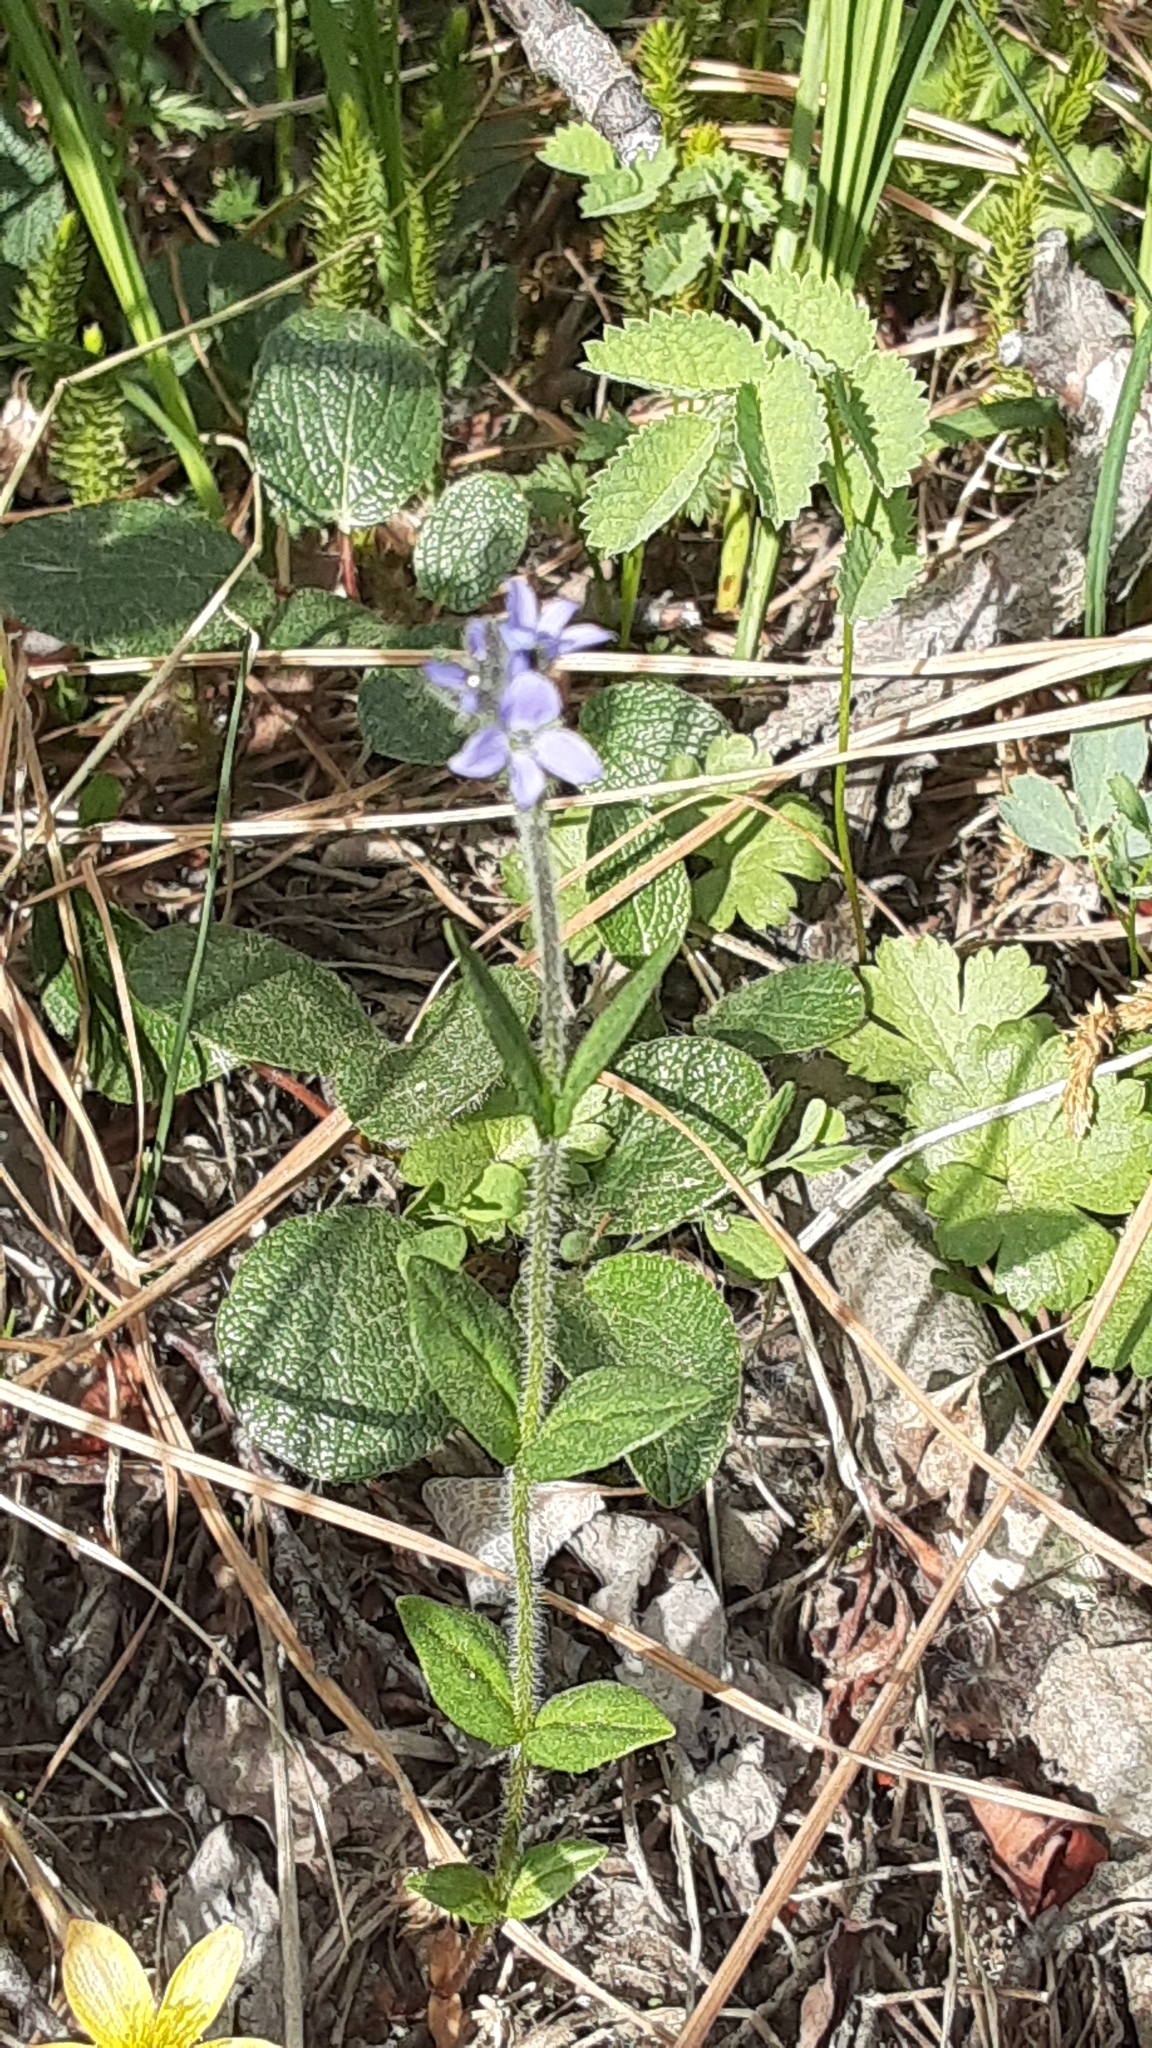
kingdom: Plantae
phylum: Tracheophyta
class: Magnoliopsida
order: Lamiales
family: Plantaginaceae
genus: Veronica
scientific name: Veronica wormskjoldii
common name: American alpine speedwell
